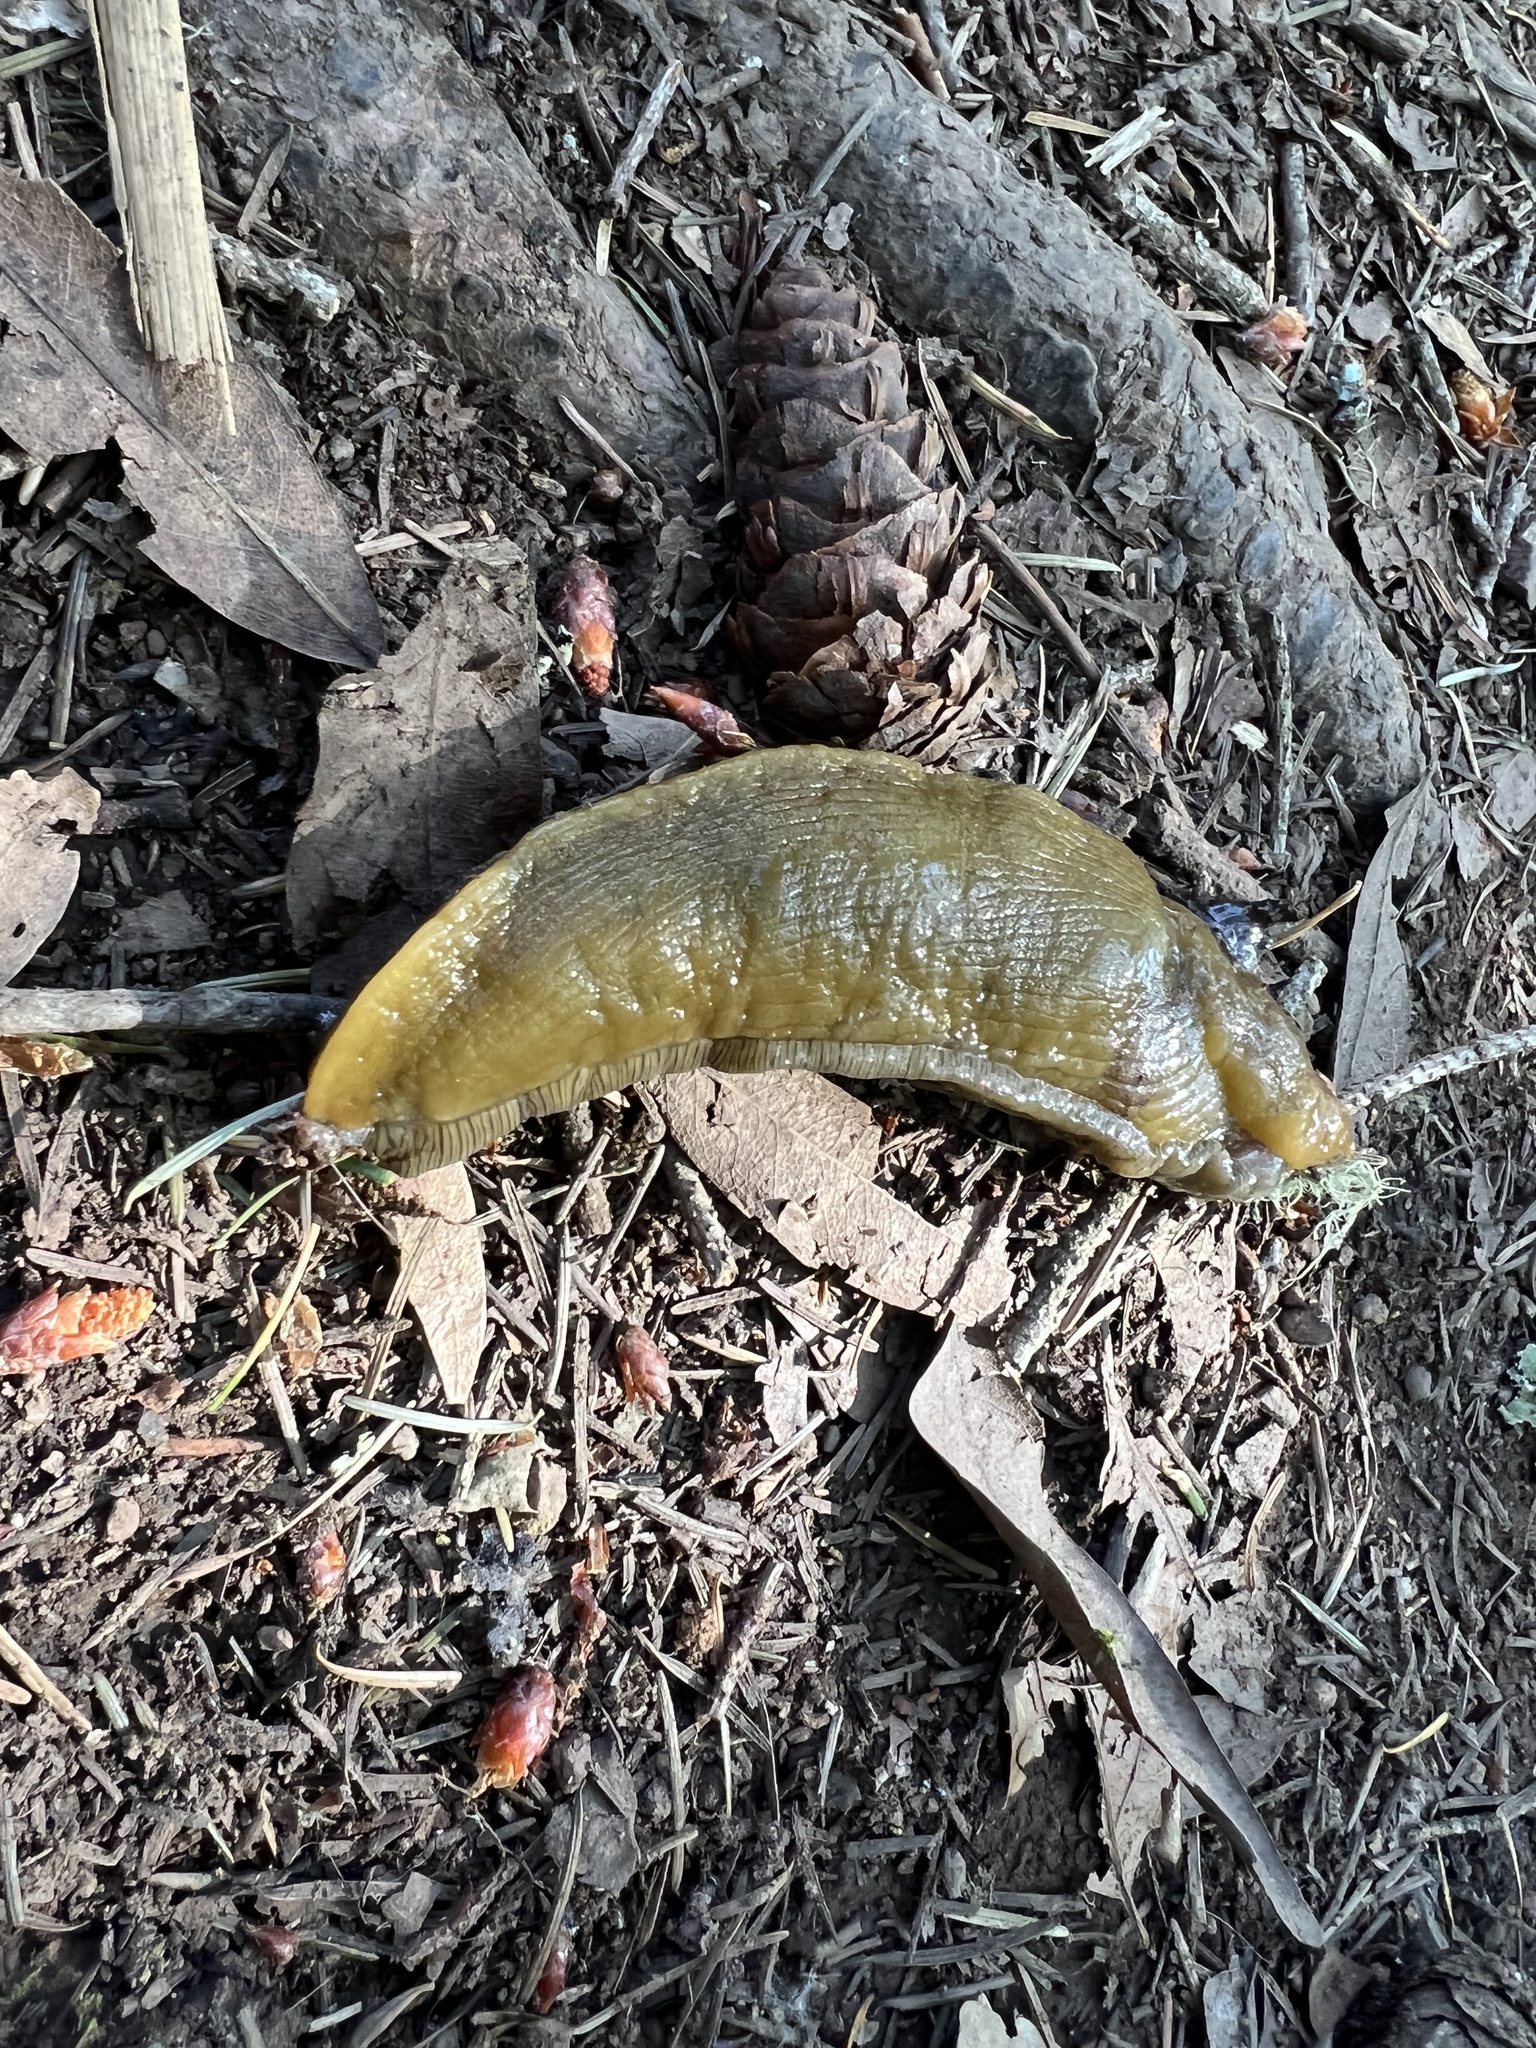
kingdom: Animalia
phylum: Mollusca
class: Gastropoda
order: Stylommatophora
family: Ariolimacidae
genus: Ariolimax
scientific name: Ariolimax buttoni
